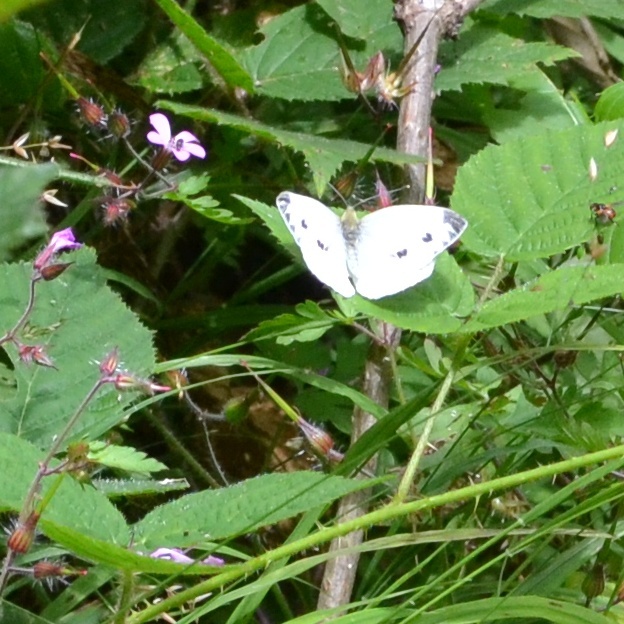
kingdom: Animalia
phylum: Arthropoda
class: Insecta
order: Lepidoptera
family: Pieridae
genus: Pieris
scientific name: Pieris napi
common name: Green-veined white
